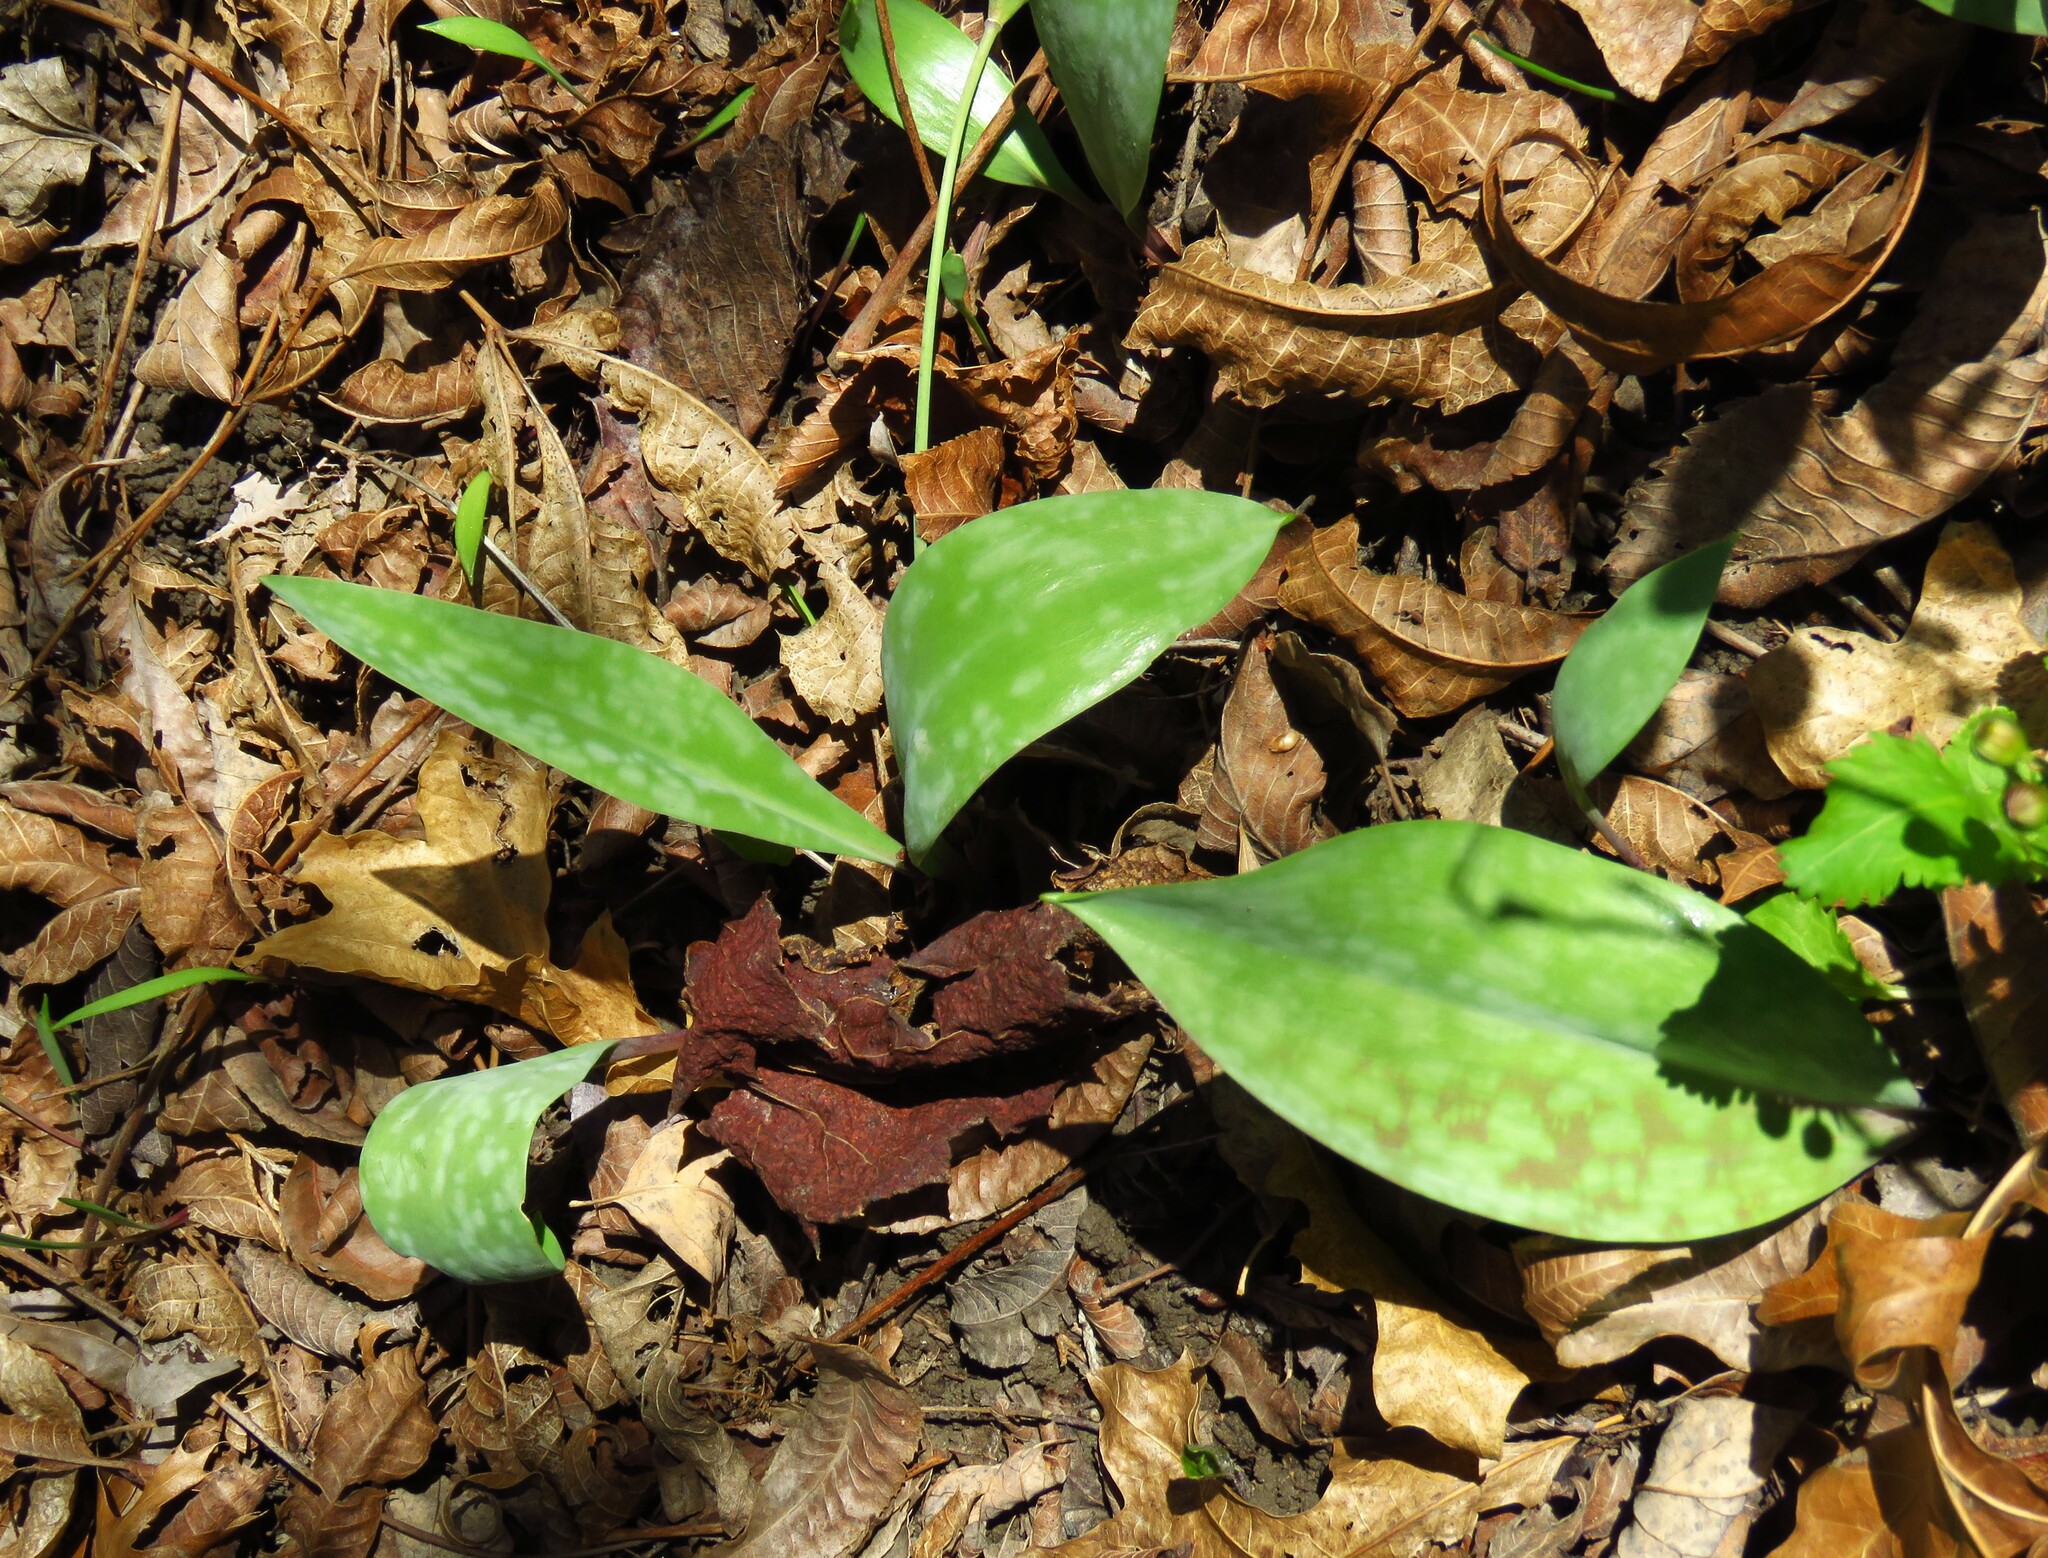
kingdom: Plantae
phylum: Tracheophyta
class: Liliopsida
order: Liliales
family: Liliaceae
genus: Erythronium
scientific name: Erythronium albidum
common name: White trout-lily
